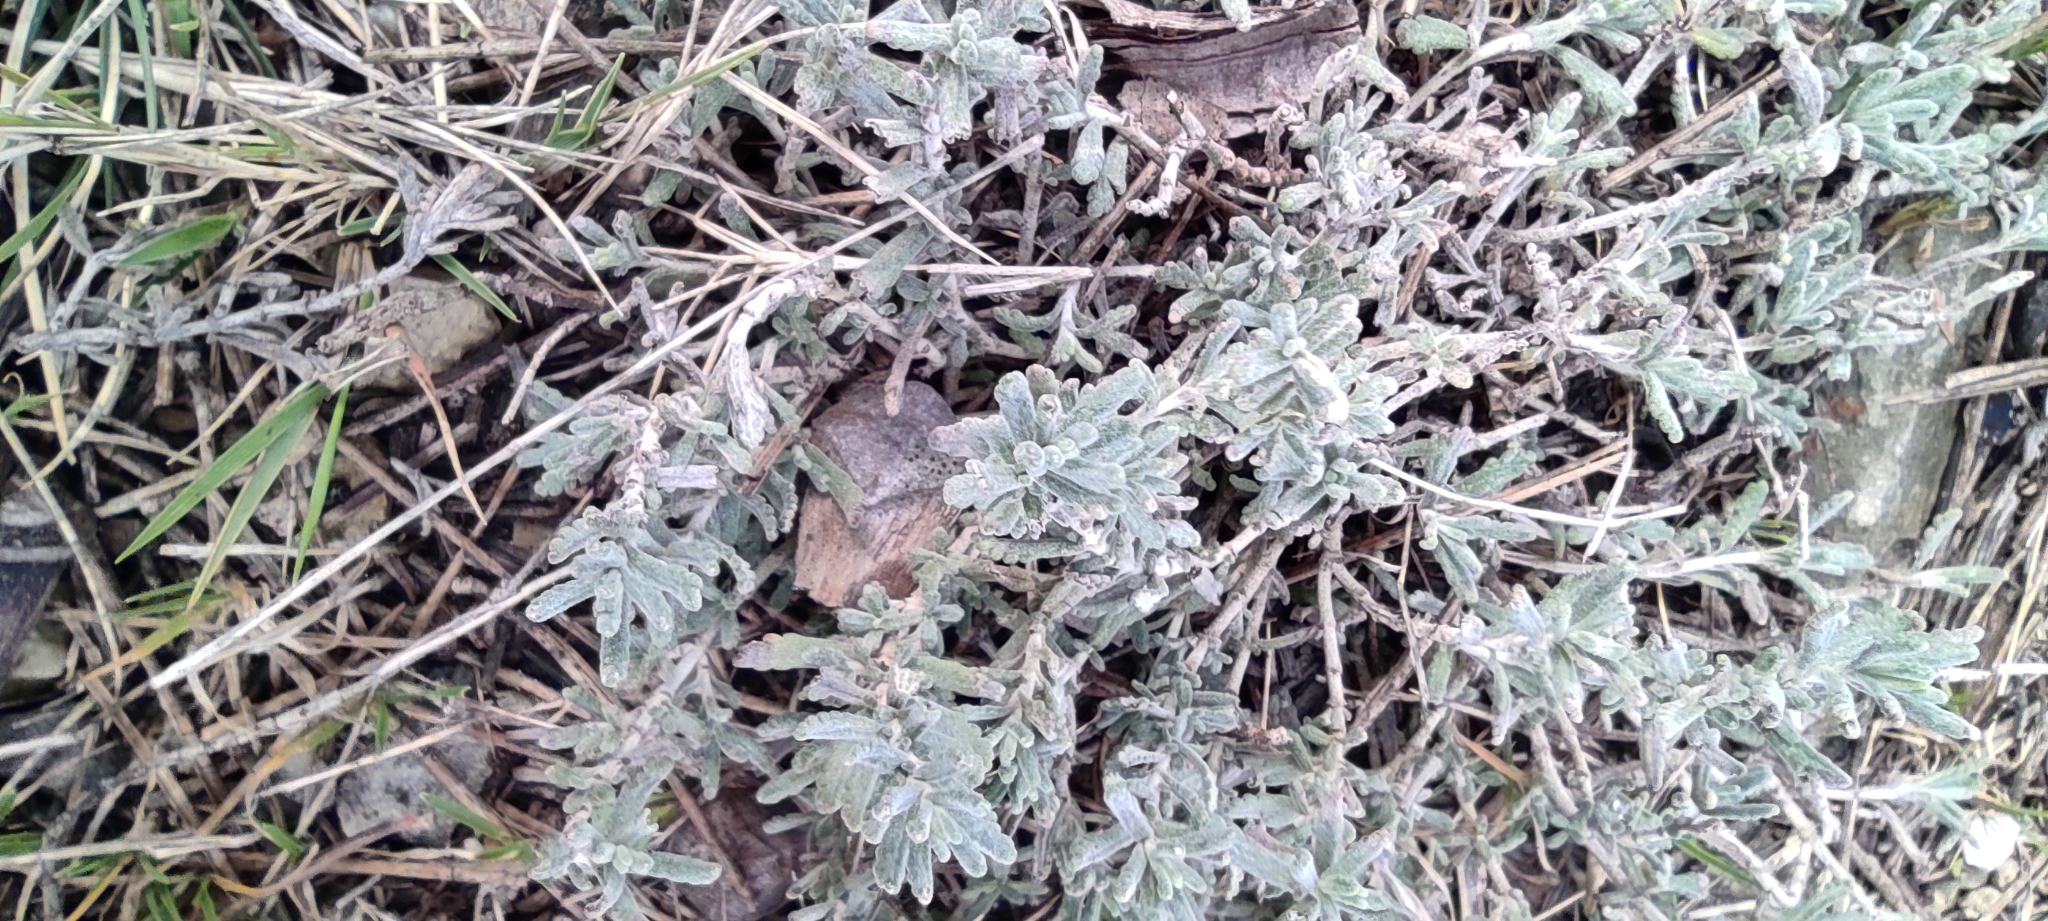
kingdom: Plantae
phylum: Tracheophyta
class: Magnoliopsida
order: Lamiales
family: Lamiaceae
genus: Teucrium
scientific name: Teucrium polium
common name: Poley
